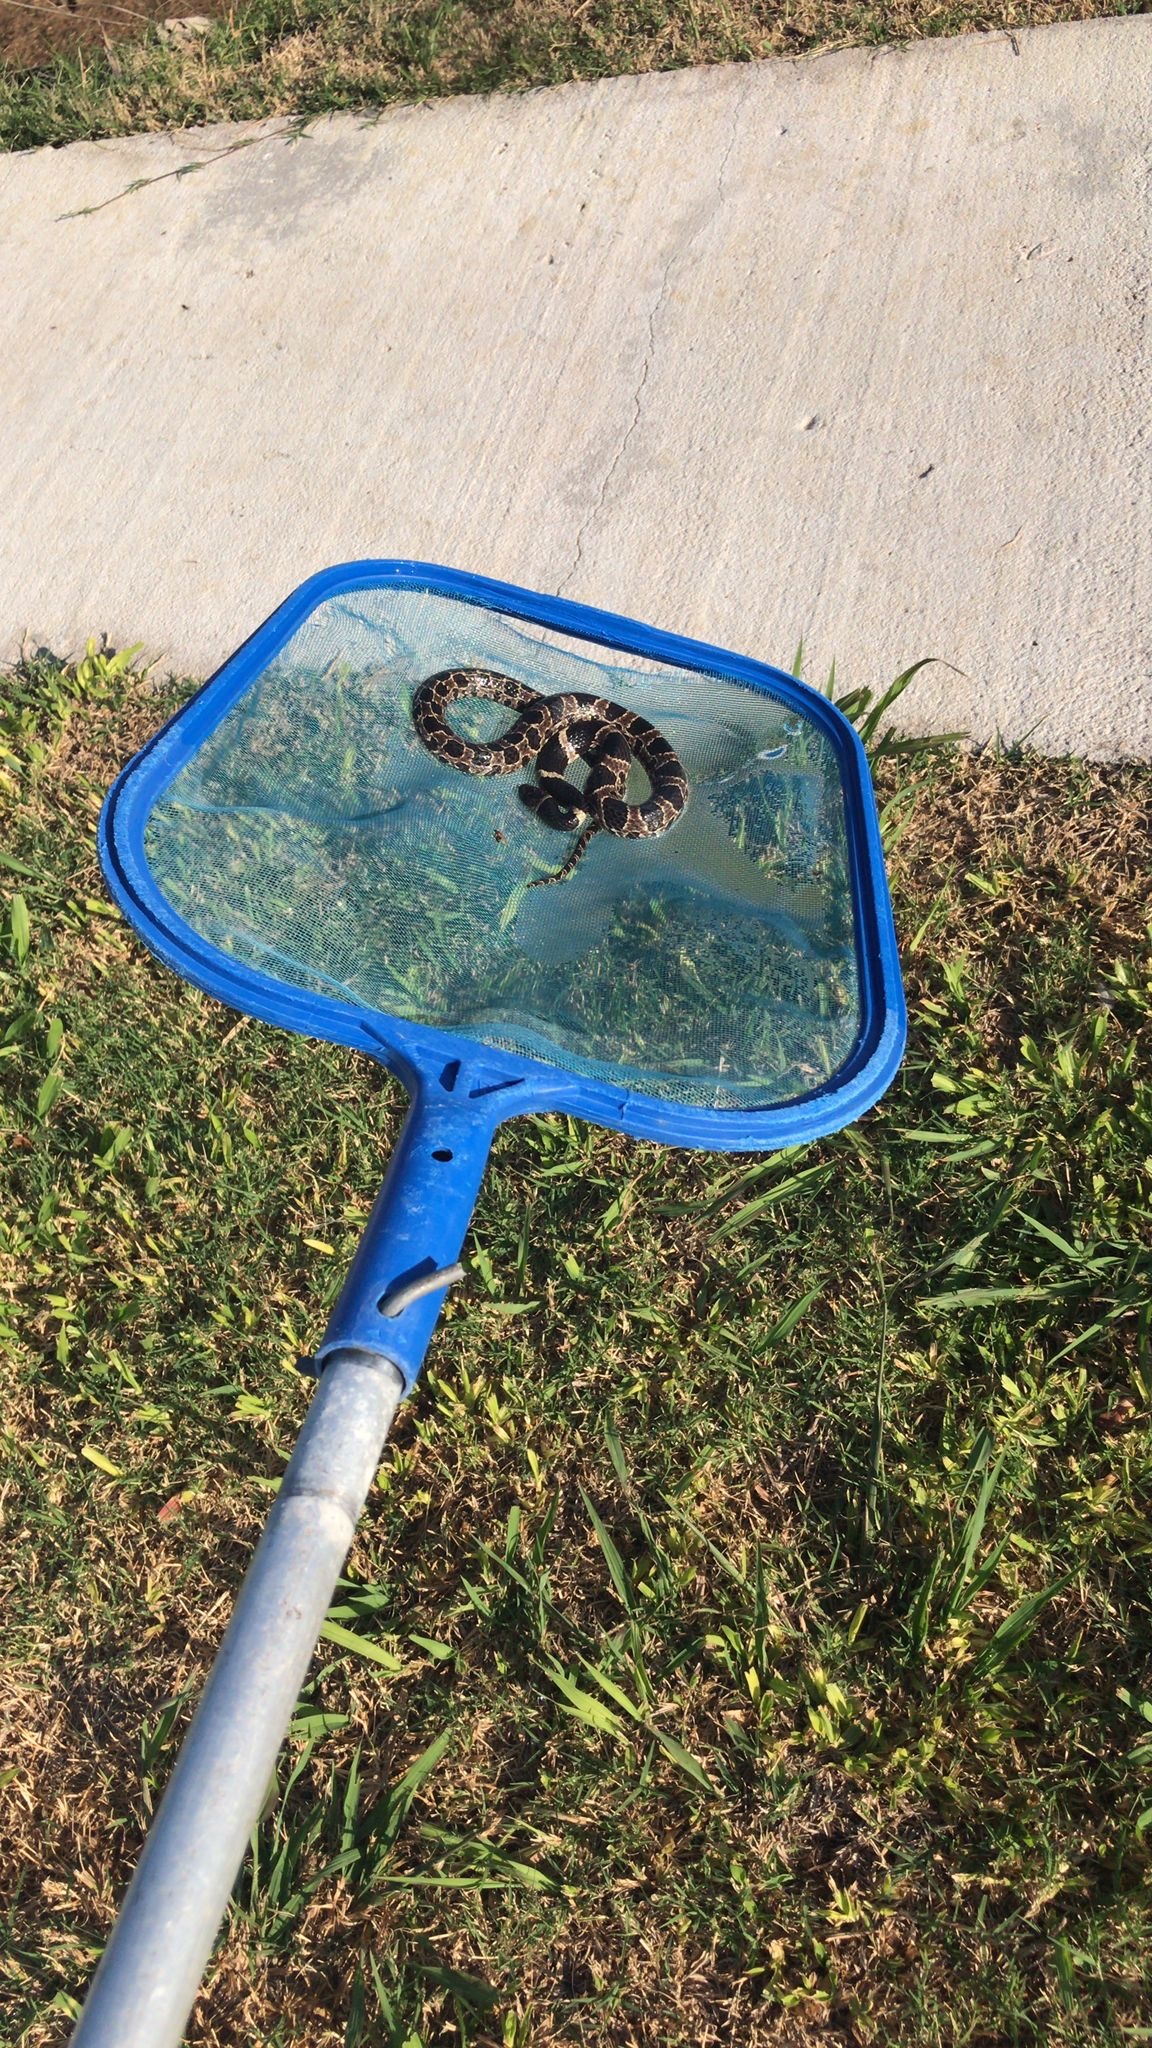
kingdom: Animalia
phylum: Chordata
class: Squamata
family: Colubridae
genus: Dipsas
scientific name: Dipsas turgida
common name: Bolivian tree snake
